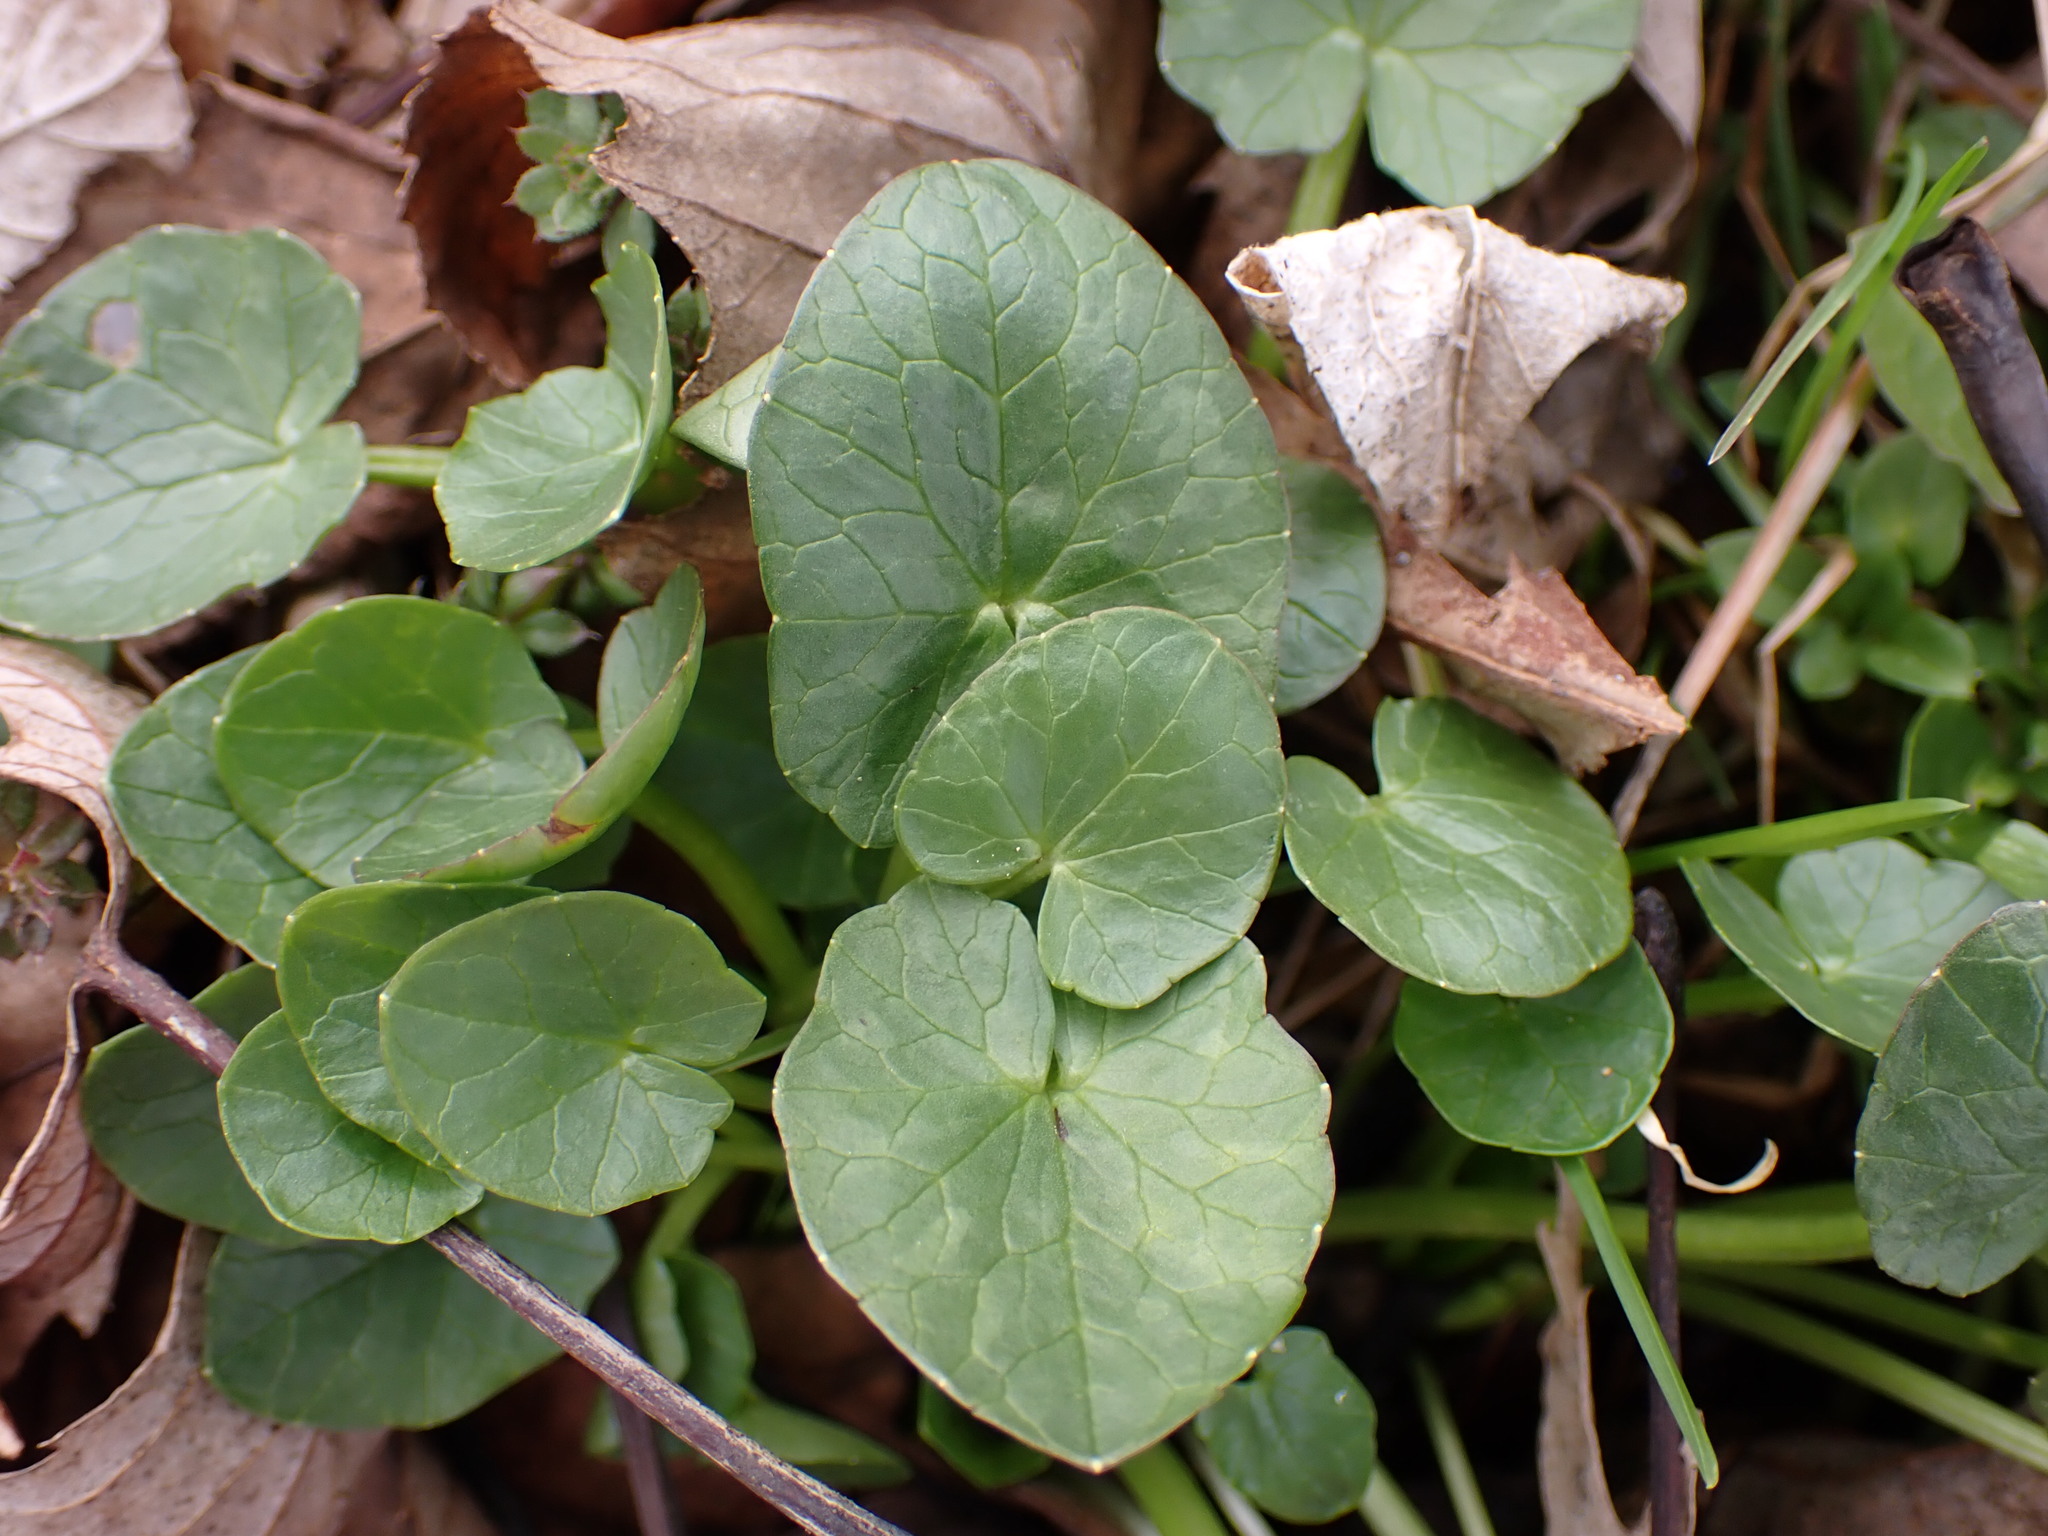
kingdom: Plantae
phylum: Tracheophyta
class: Magnoliopsida
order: Ranunculales
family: Ranunculaceae
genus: Ficaria
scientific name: Ficaria verna
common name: Lesser celandine
